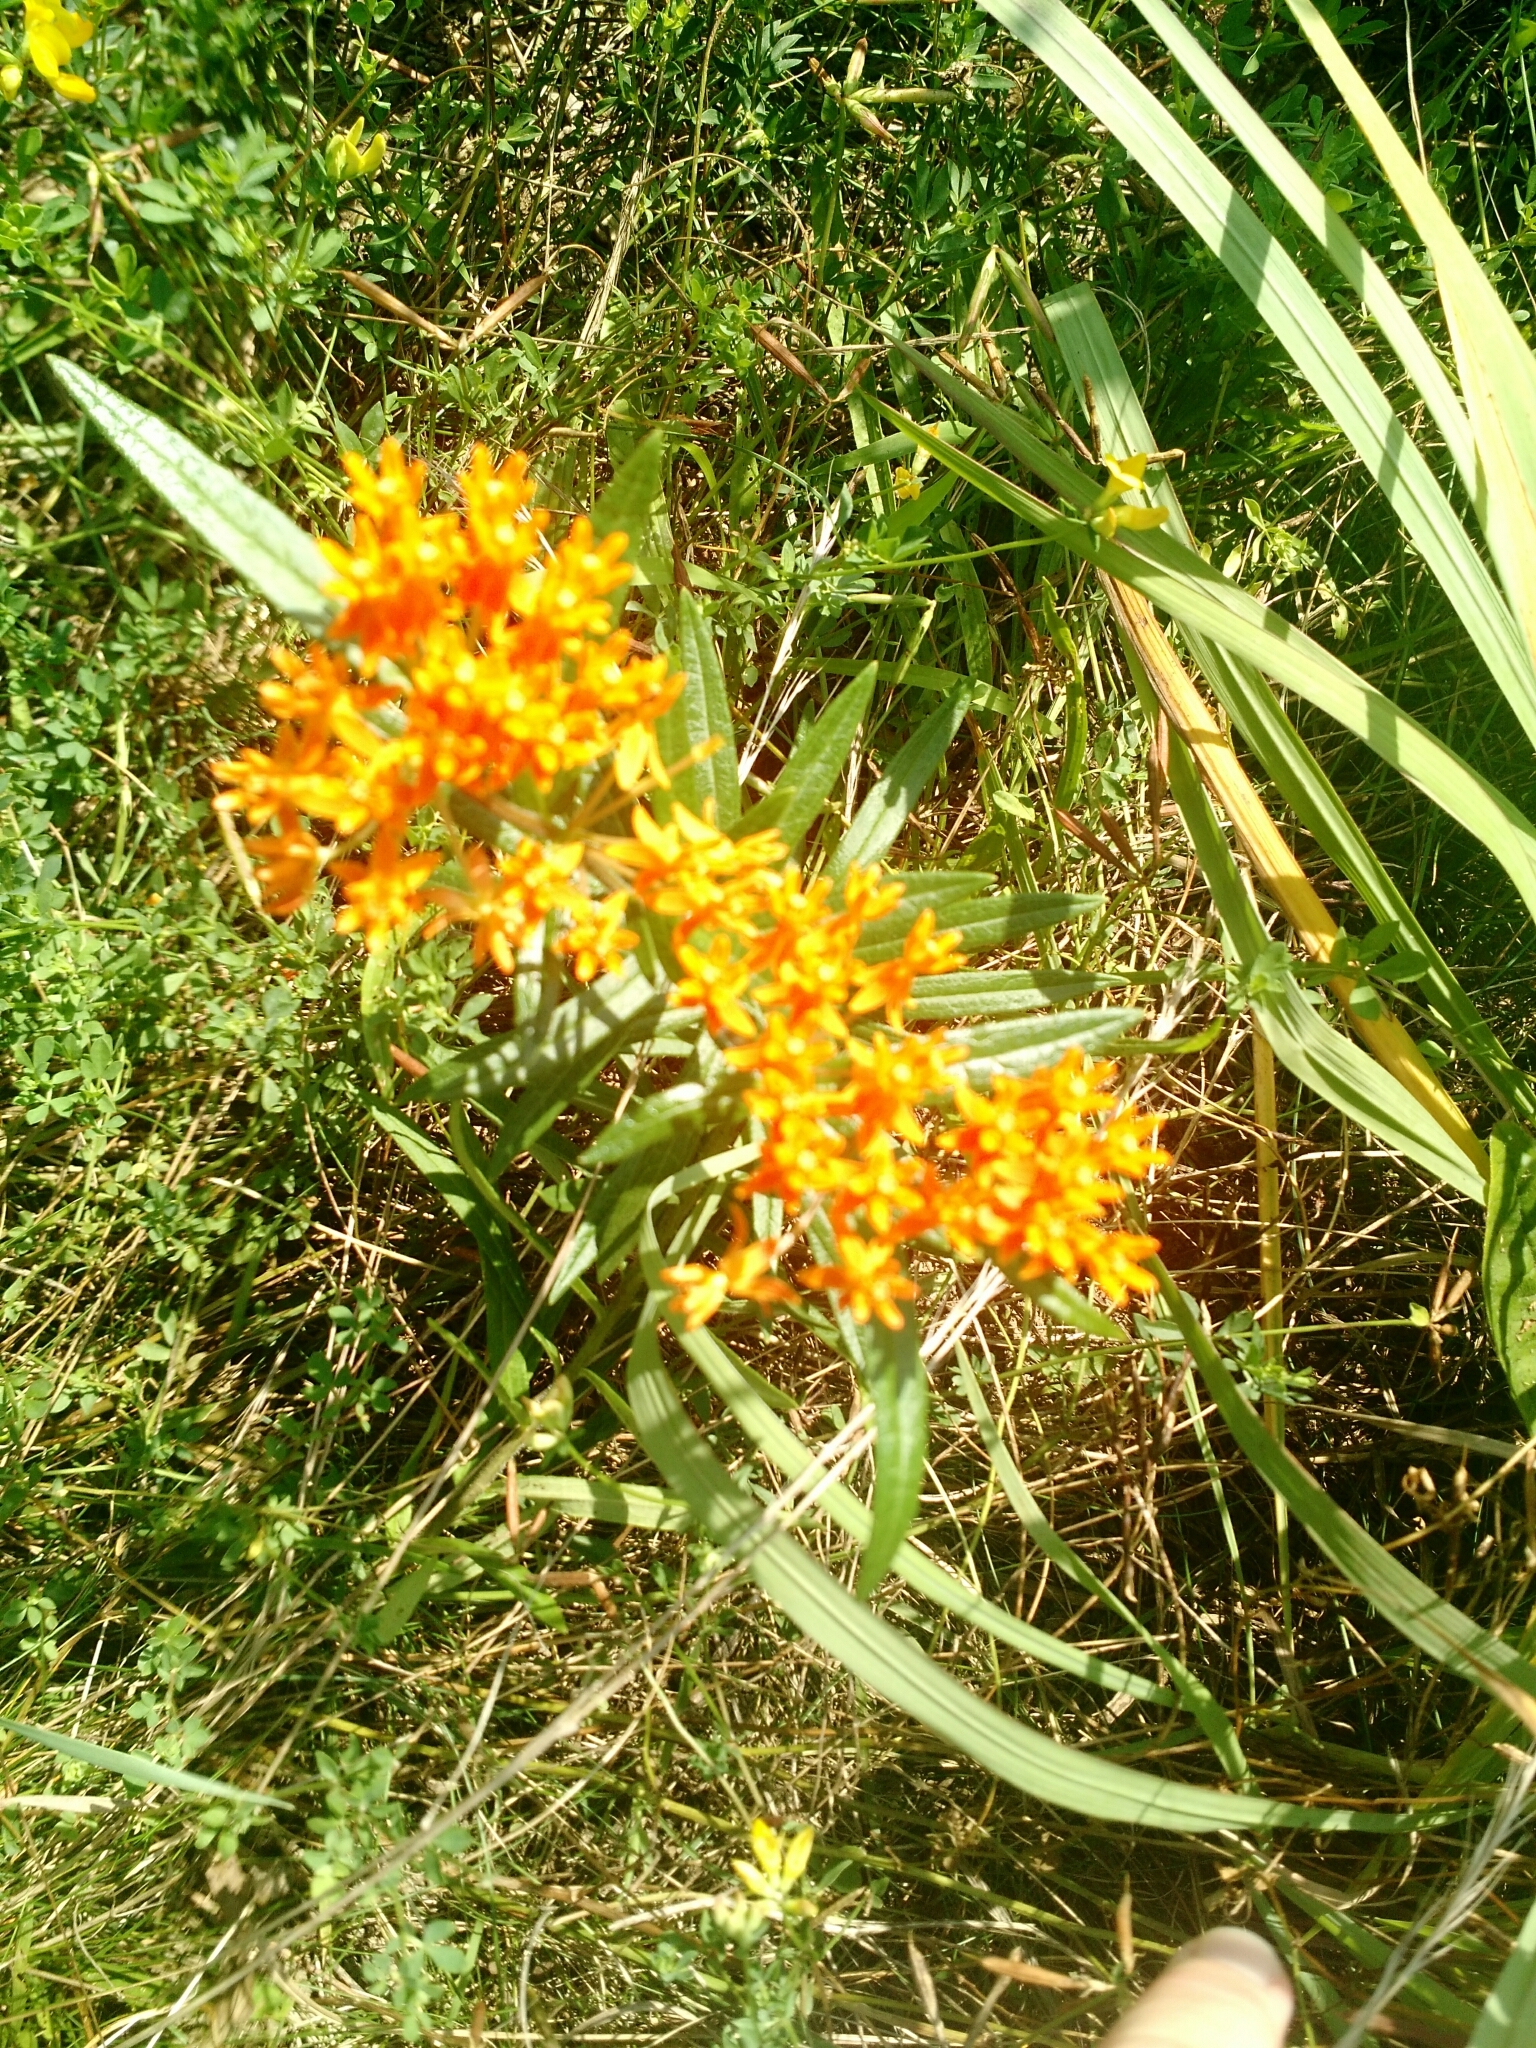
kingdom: Plantae
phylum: Tracheophyta
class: Magnoliopsida
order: Gentianales
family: Apocynaceae
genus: Asclepias
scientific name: Asclepias tuberosa
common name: Butterfly milkweed
